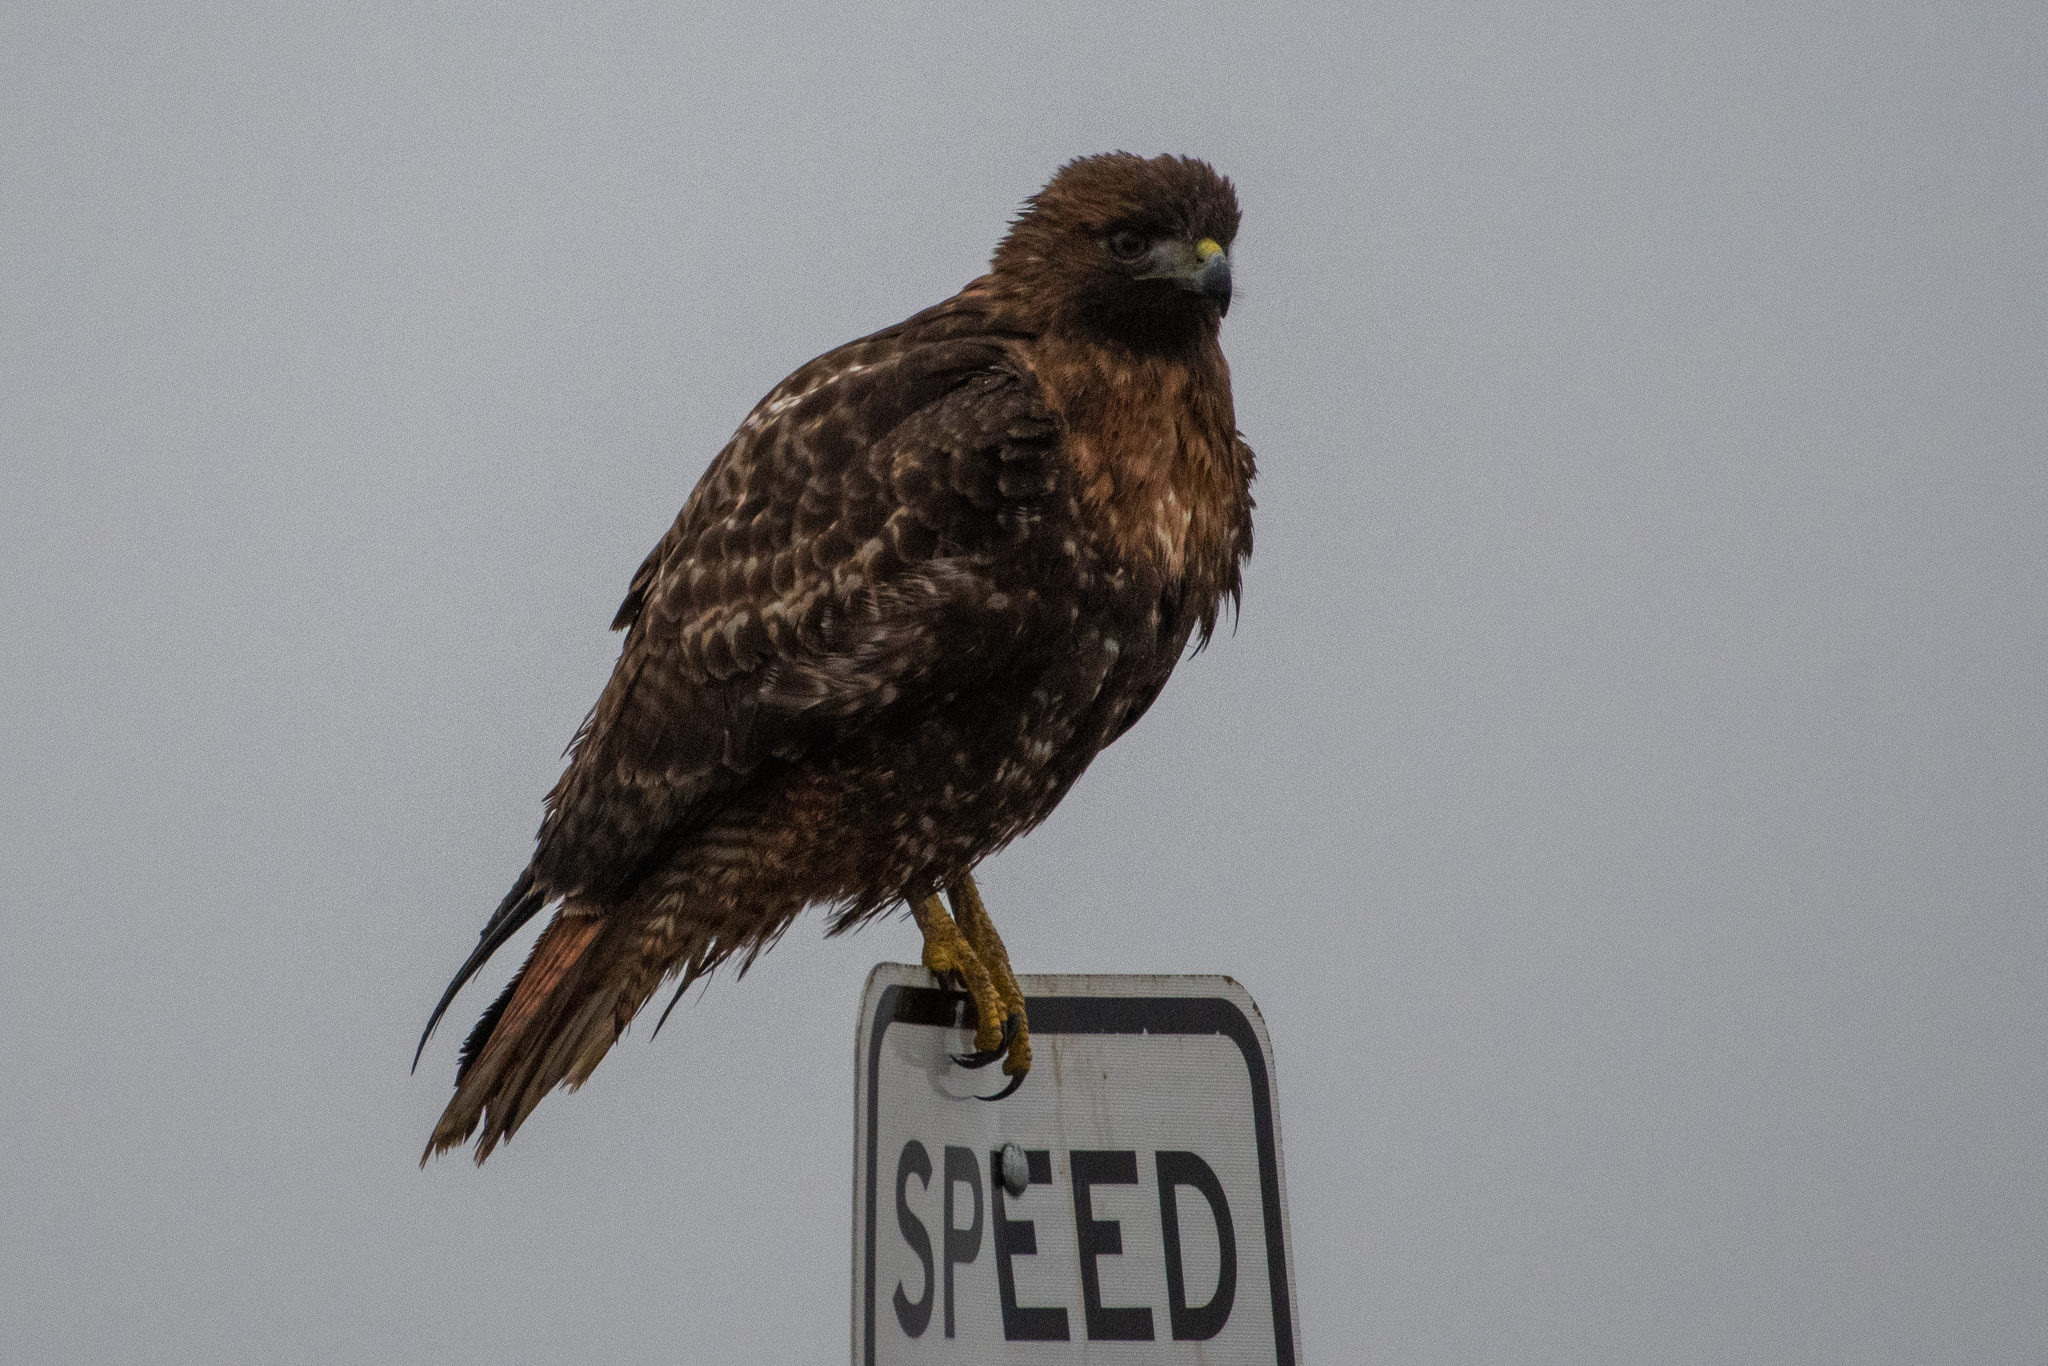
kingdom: Animalia
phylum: Chordata
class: Aves
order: Accipitriformes
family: Accipitridae
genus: Buteo
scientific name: Buteo jamaicensis
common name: Red-tailed hawk
